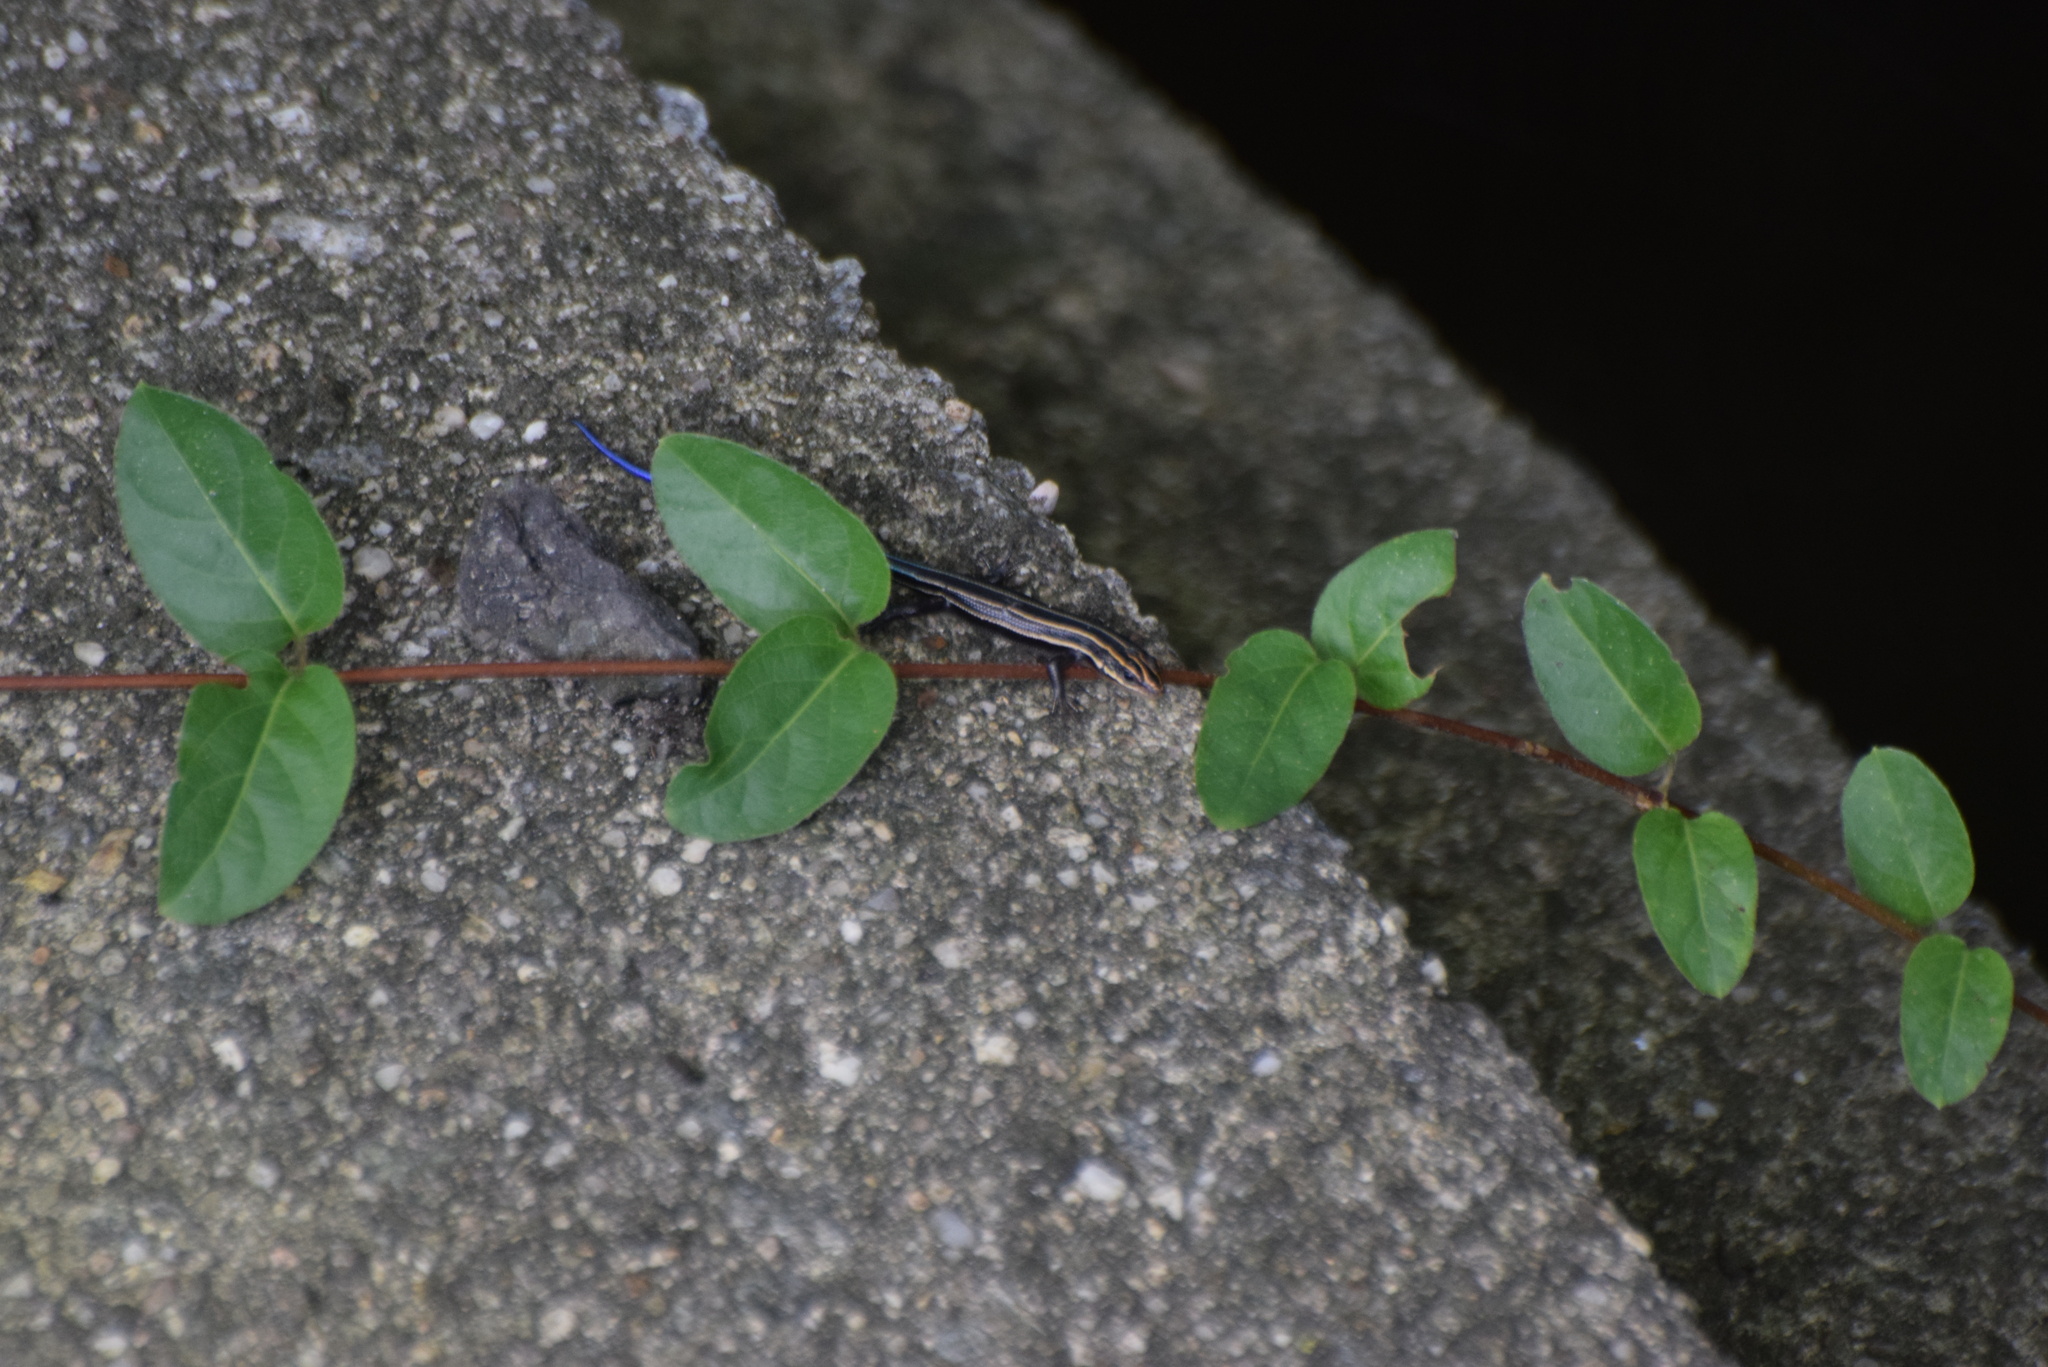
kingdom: Animalia
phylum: Chordata
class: Squamata
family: Scincidae
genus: Plestiodon
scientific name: Plestiodon fasciatus
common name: Five-lined skink
